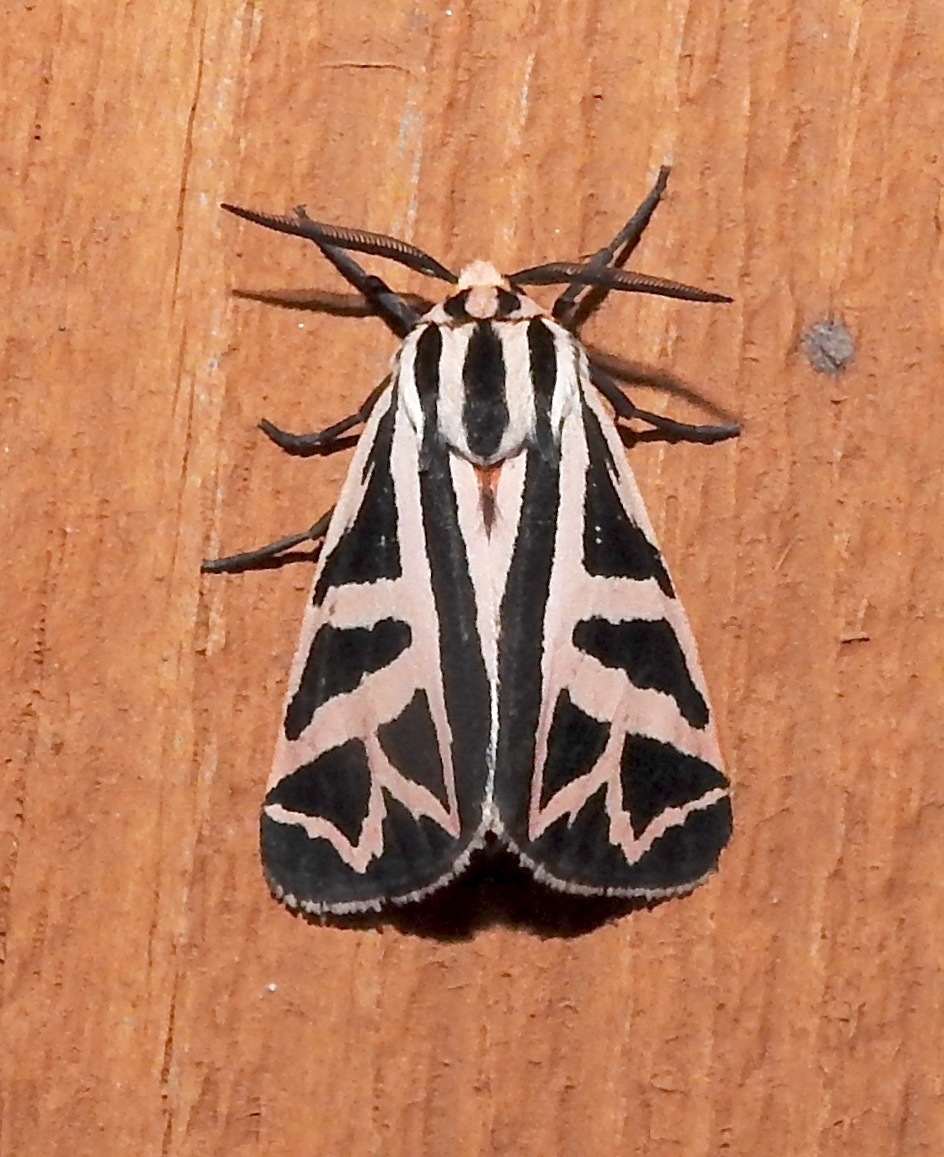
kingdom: Animalia
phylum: Arthropoda
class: Insecta
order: Lepidoptera
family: Erebidae
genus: Apantesis
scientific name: Apantesis
